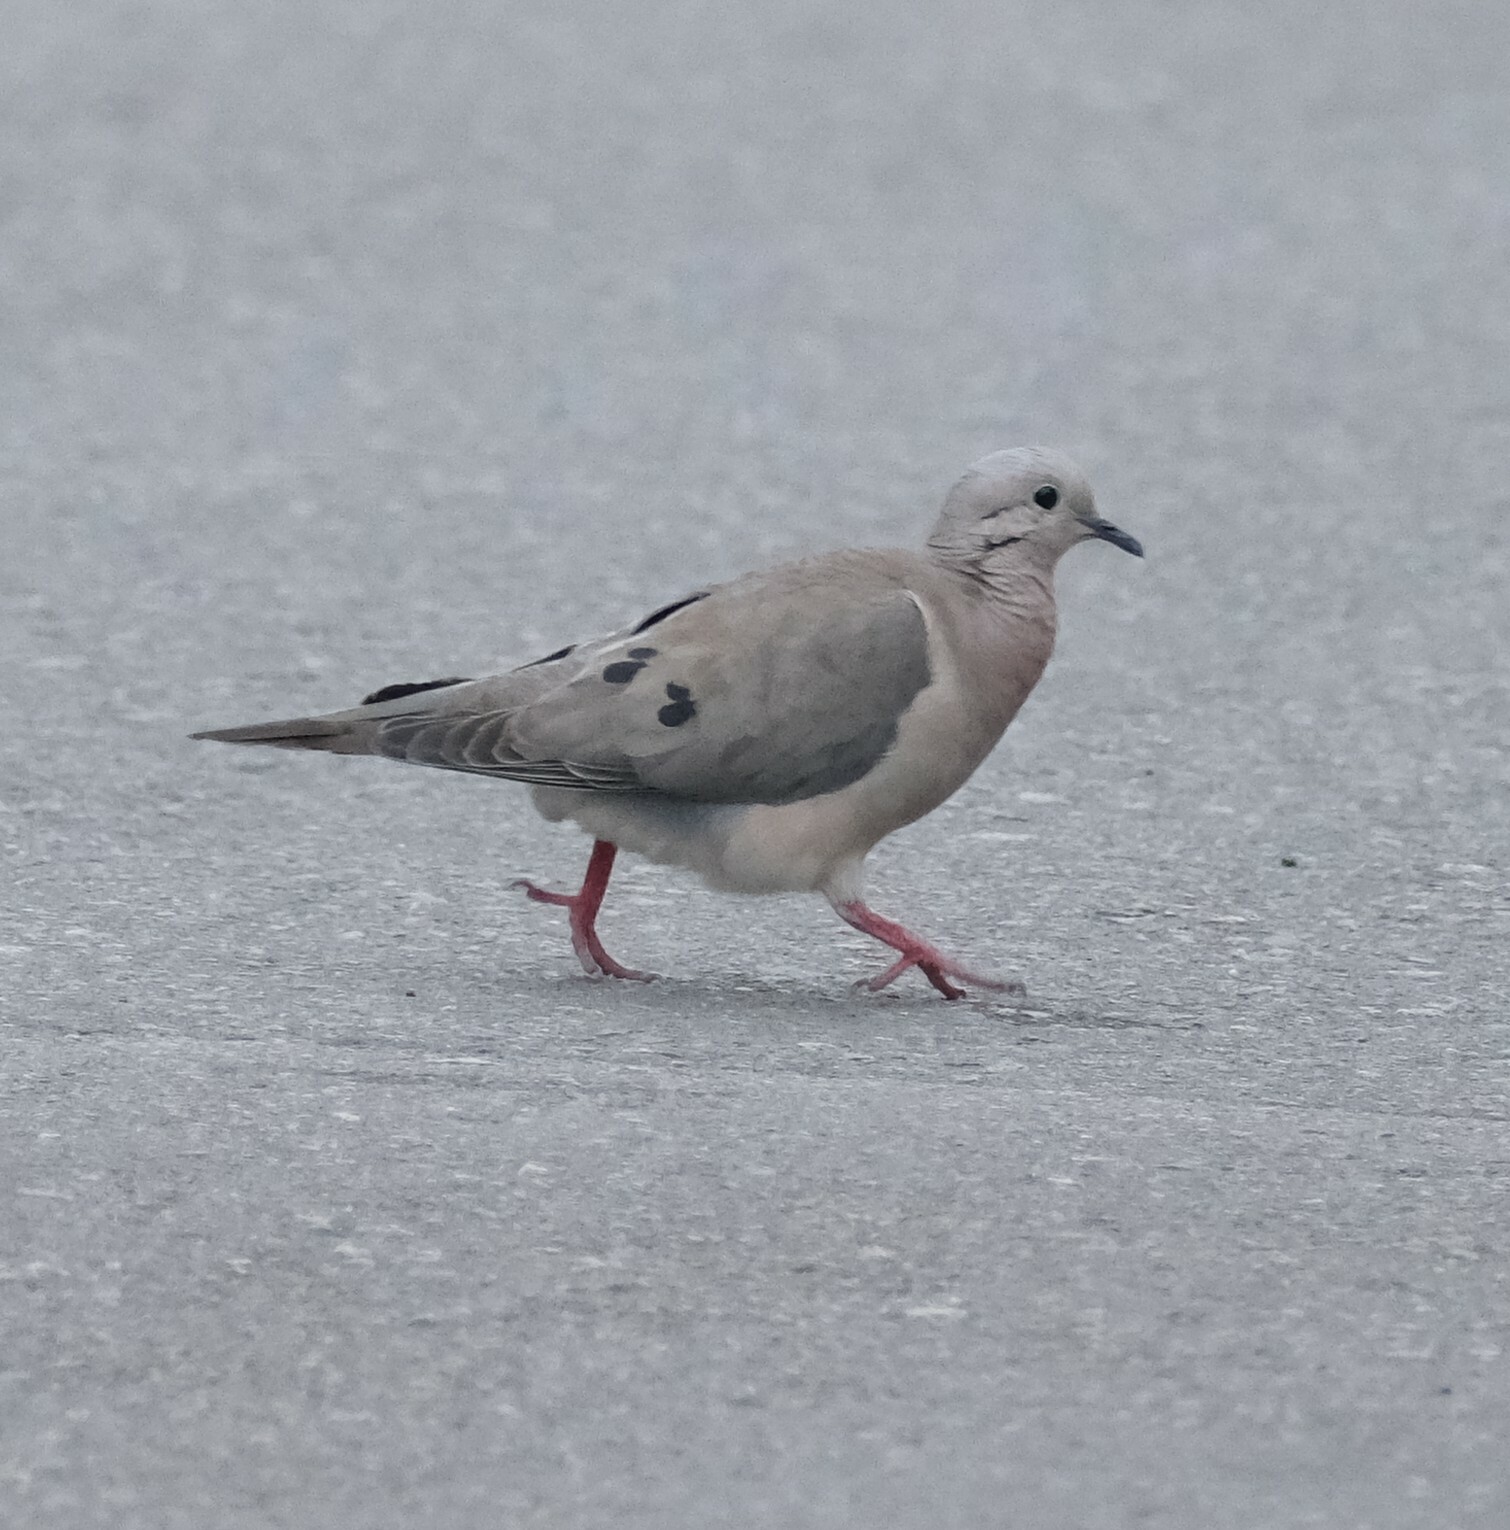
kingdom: Animalia
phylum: Chordata
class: Aves
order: Columbiformes
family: Columbidae
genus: Zenaida
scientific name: Zenaida auriculata
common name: Eared dove
